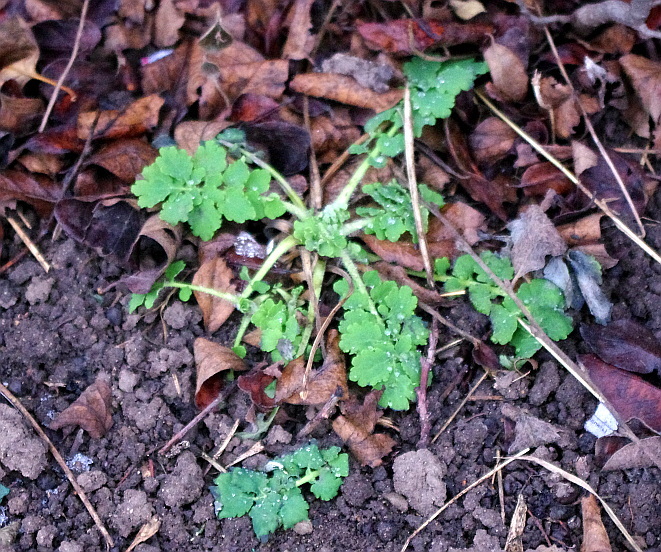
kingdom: Plantae
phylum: Tracheophyta
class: Magnoliopsida
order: Ranunculales
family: Papaveraceae
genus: Chelidonium
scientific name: Chelidonium majus
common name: Greater celandine
